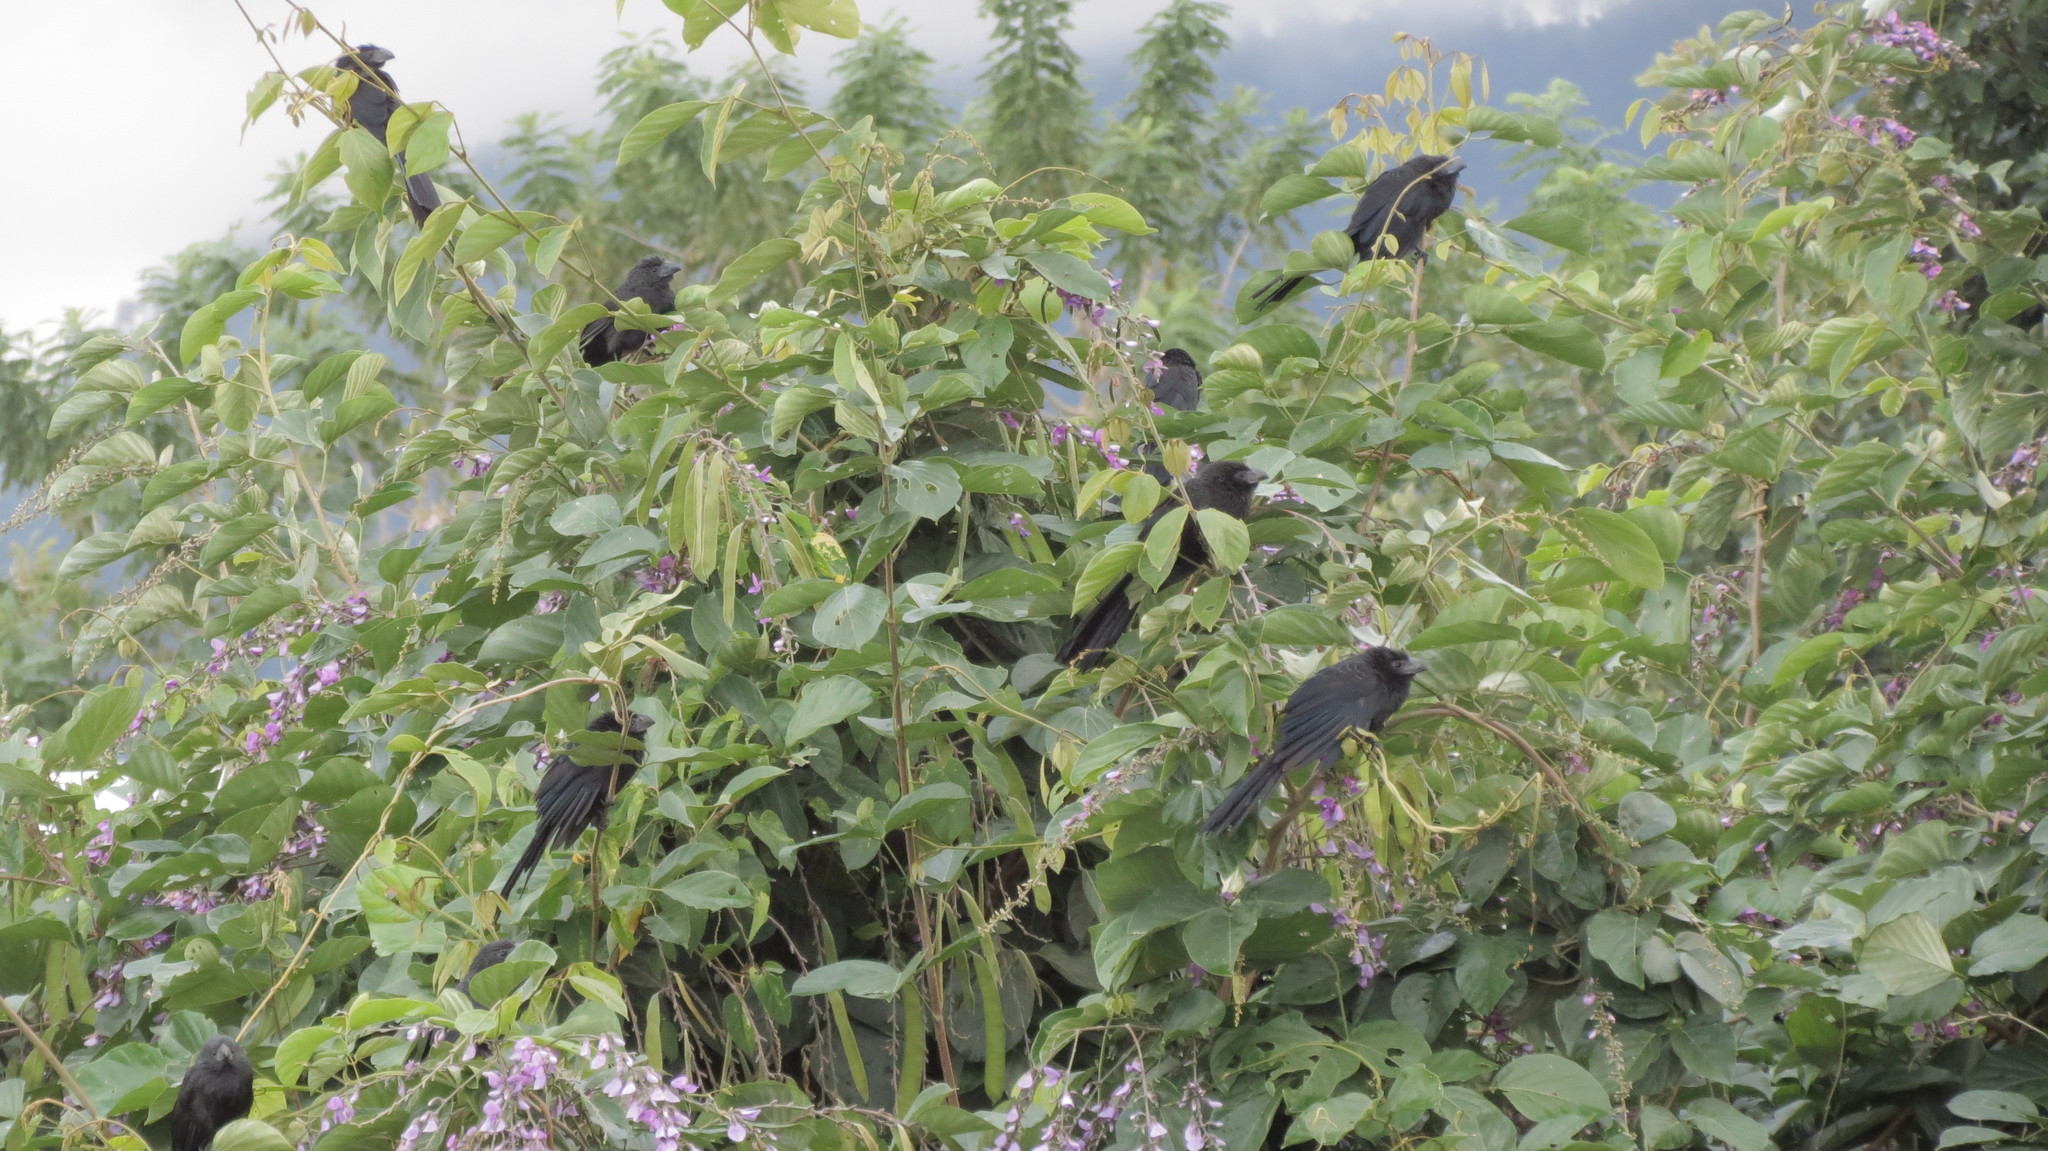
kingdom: Animalia
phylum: Chordata
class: Aves
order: Cuculiformes
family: Cuculidae
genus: Crotophaga
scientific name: Crotophaga sulcirostris
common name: Groove-billed ani
